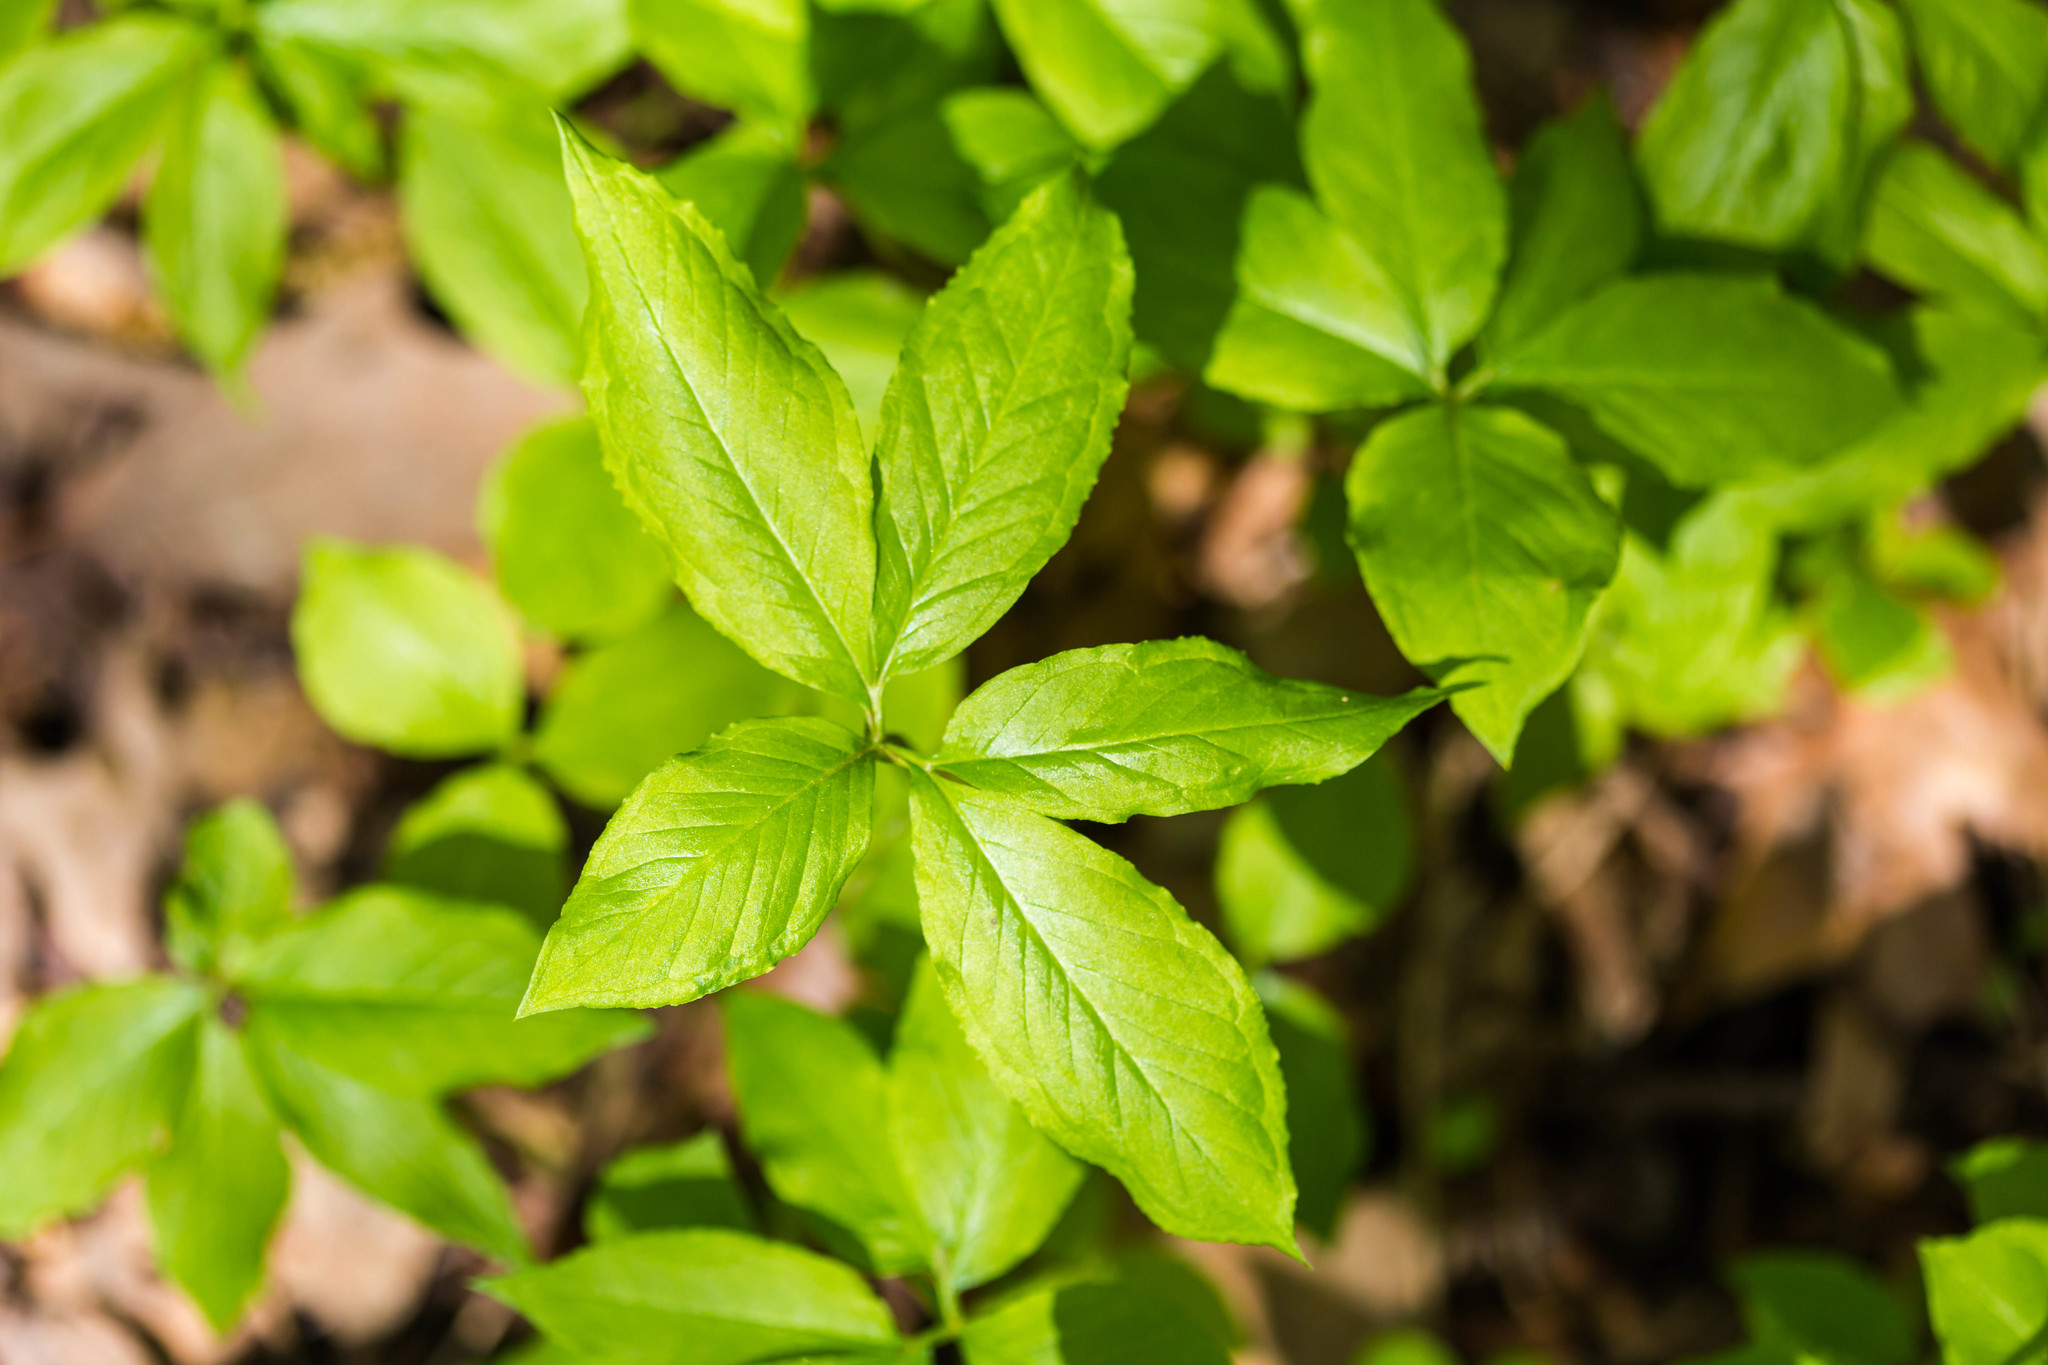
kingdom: Plantae
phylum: Tracheophyta
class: Liliopsida
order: Alismatales
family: Araceae
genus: Arisaema
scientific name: Arisaema dracontium
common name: Dragon-arum
